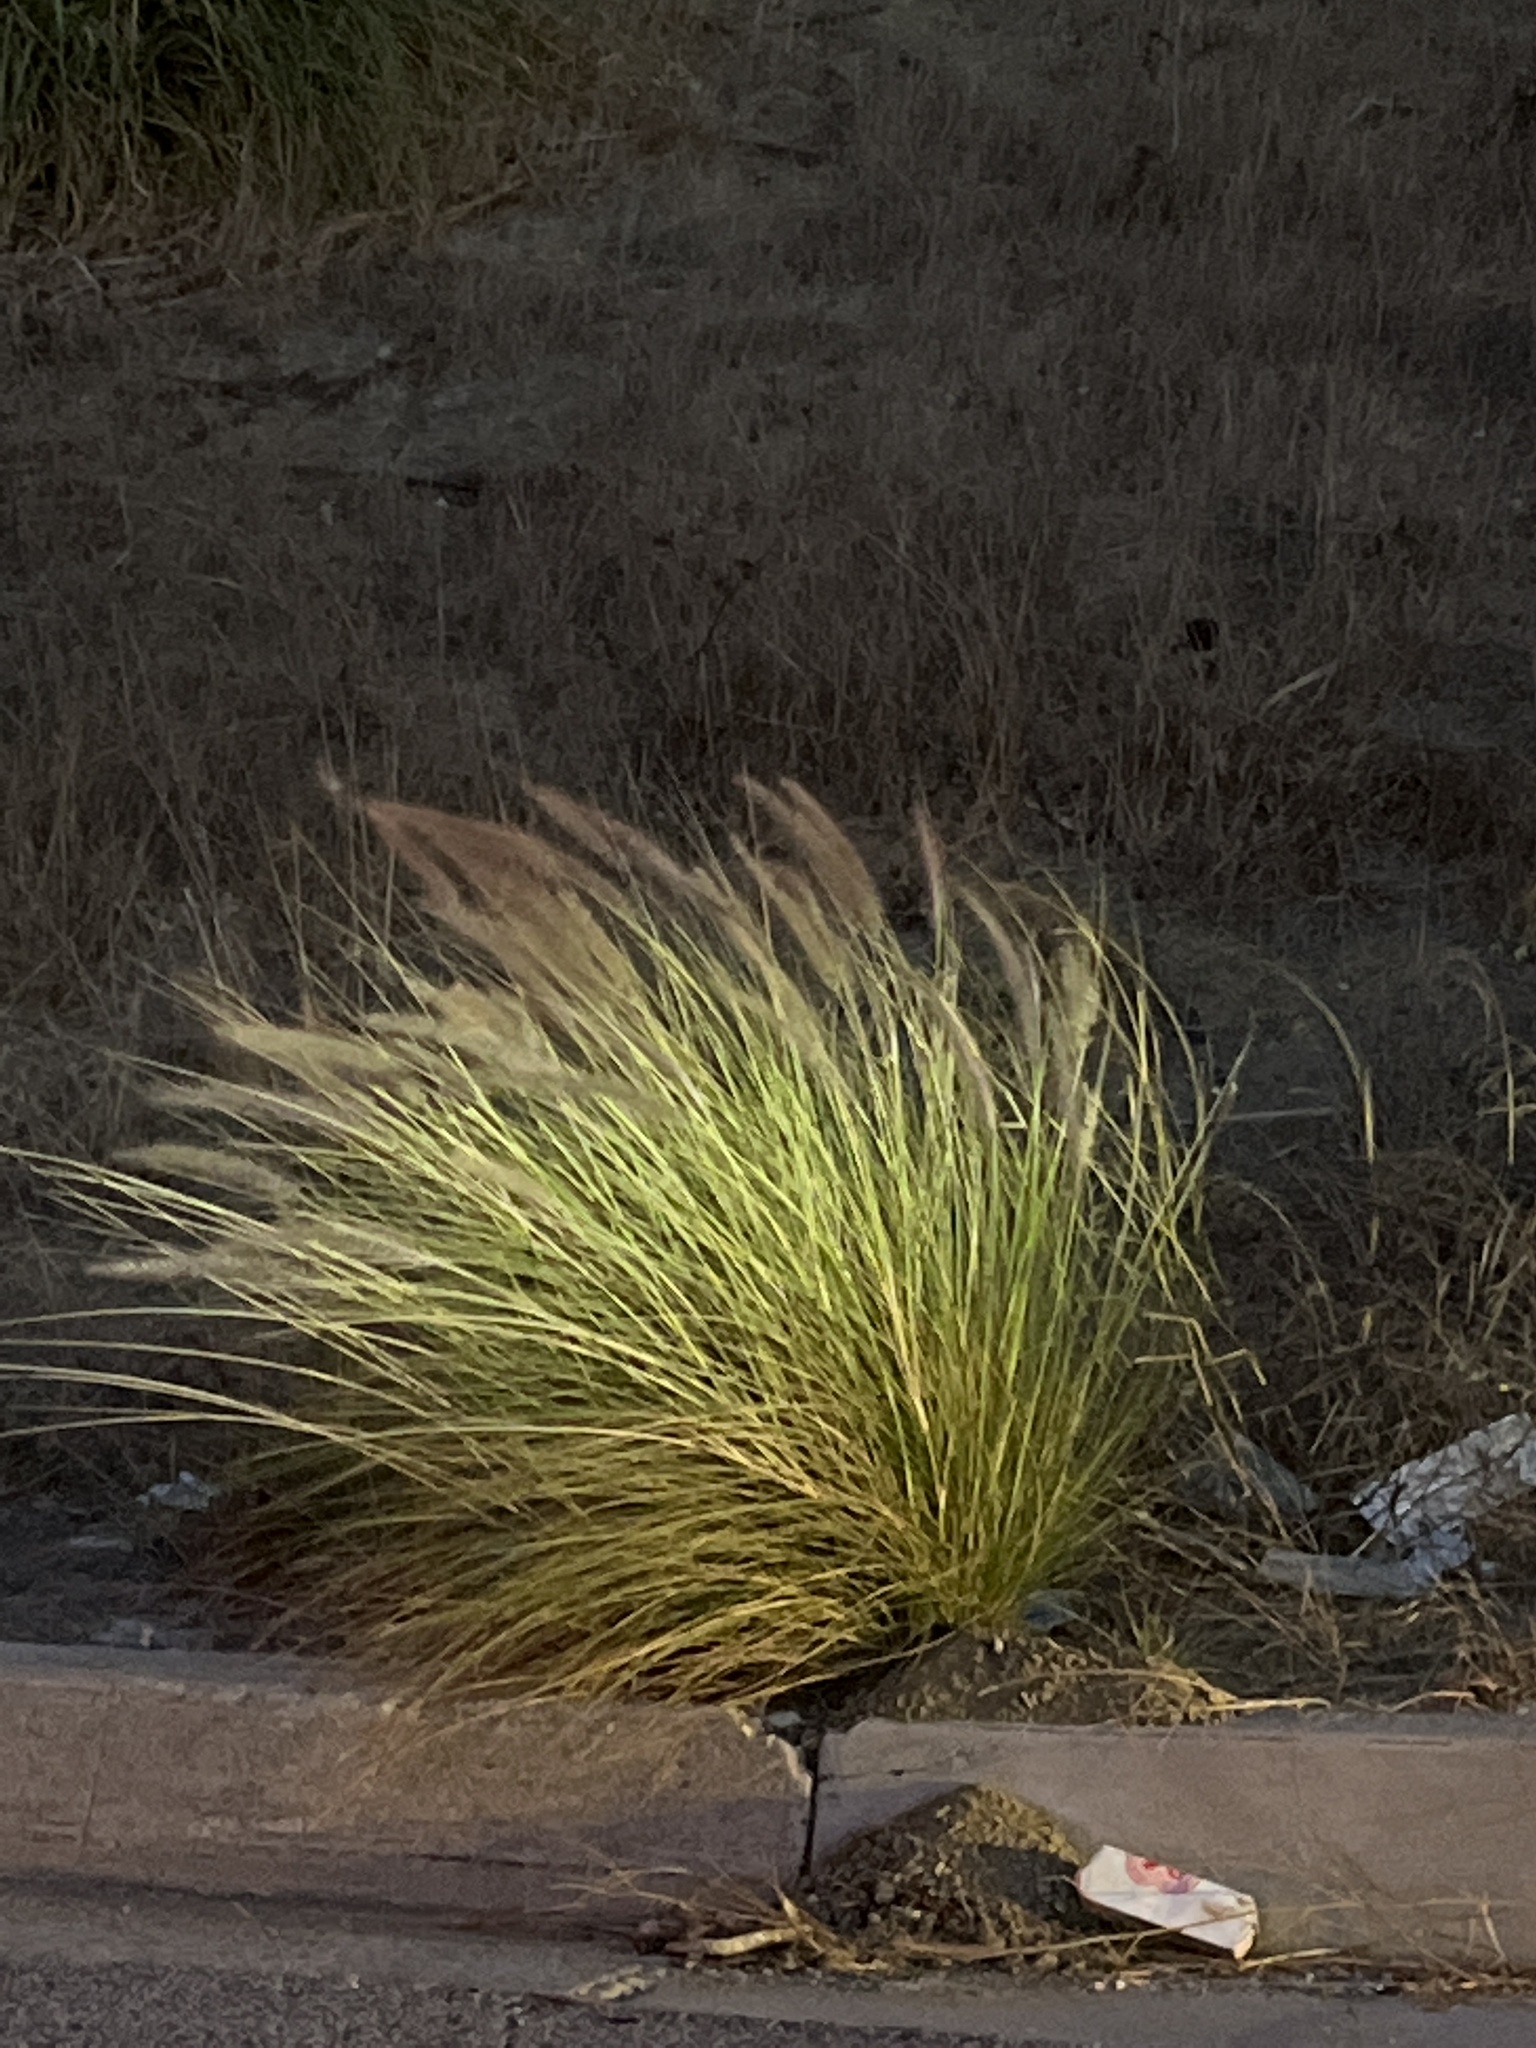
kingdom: Plantae
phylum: Tracheophyta
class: Liliopsida
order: Poales
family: Poaceae
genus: Cenchrus
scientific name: Cenchrus setaceus
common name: Crimson fountaingrass
